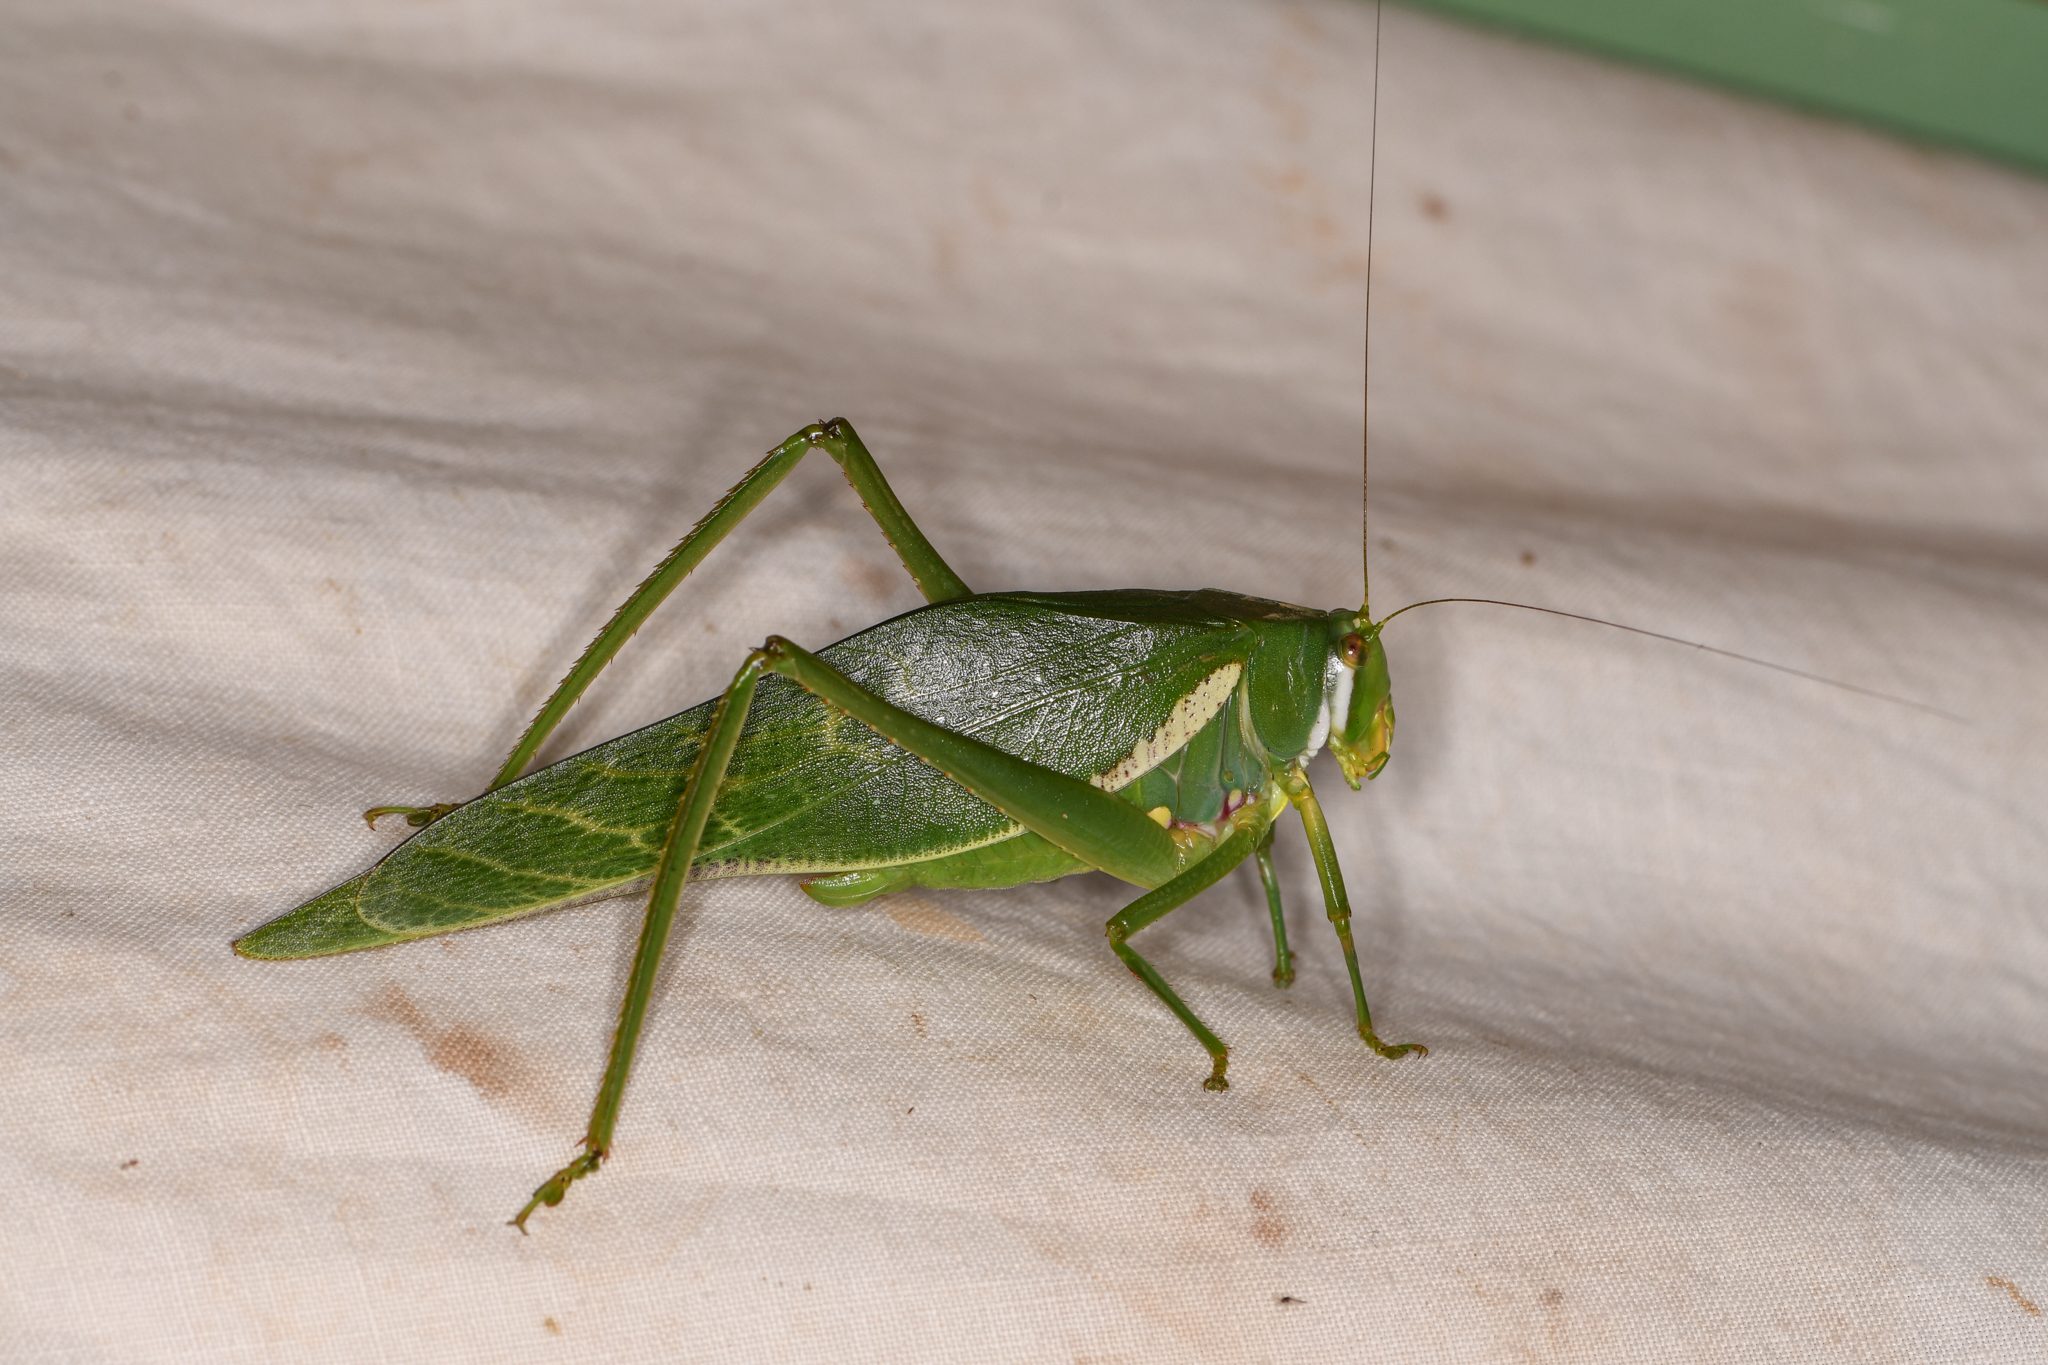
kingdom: Animalia
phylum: Arthropoda
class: Insecta
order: Orthoptera
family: Tettigoniidae
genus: Philophyllia
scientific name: Philophyllia guttulata
